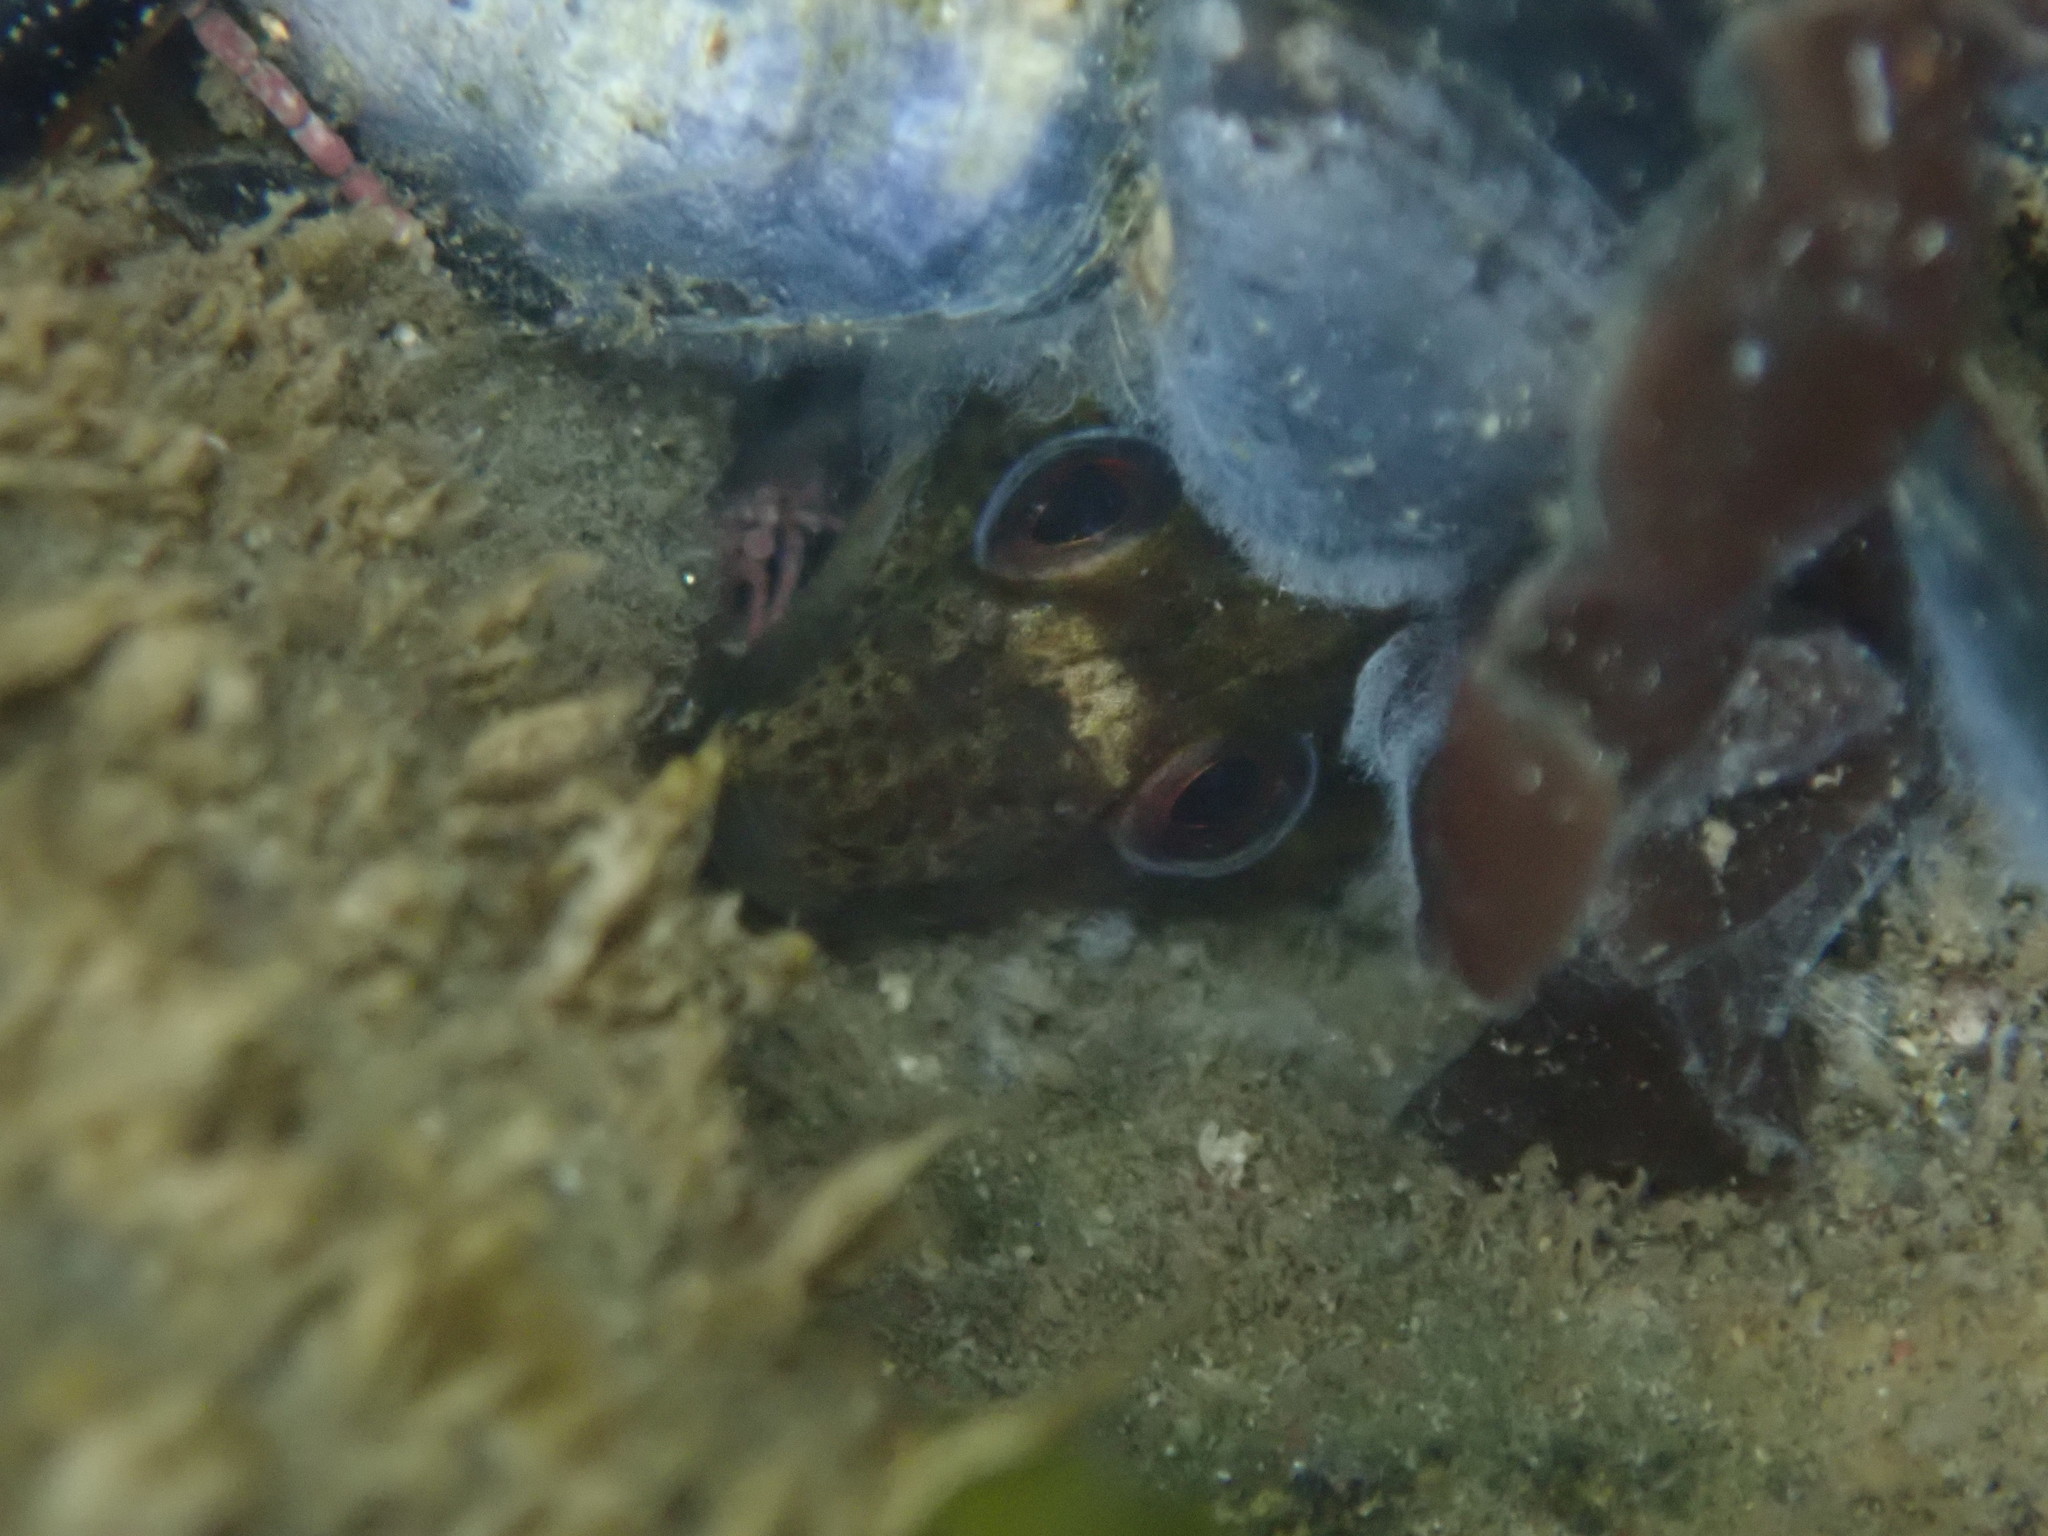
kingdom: Animalia
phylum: Chordata
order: Perciformes
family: Blenniidae
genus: Lipophrys
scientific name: Lipophrys pholis
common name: Shanny
